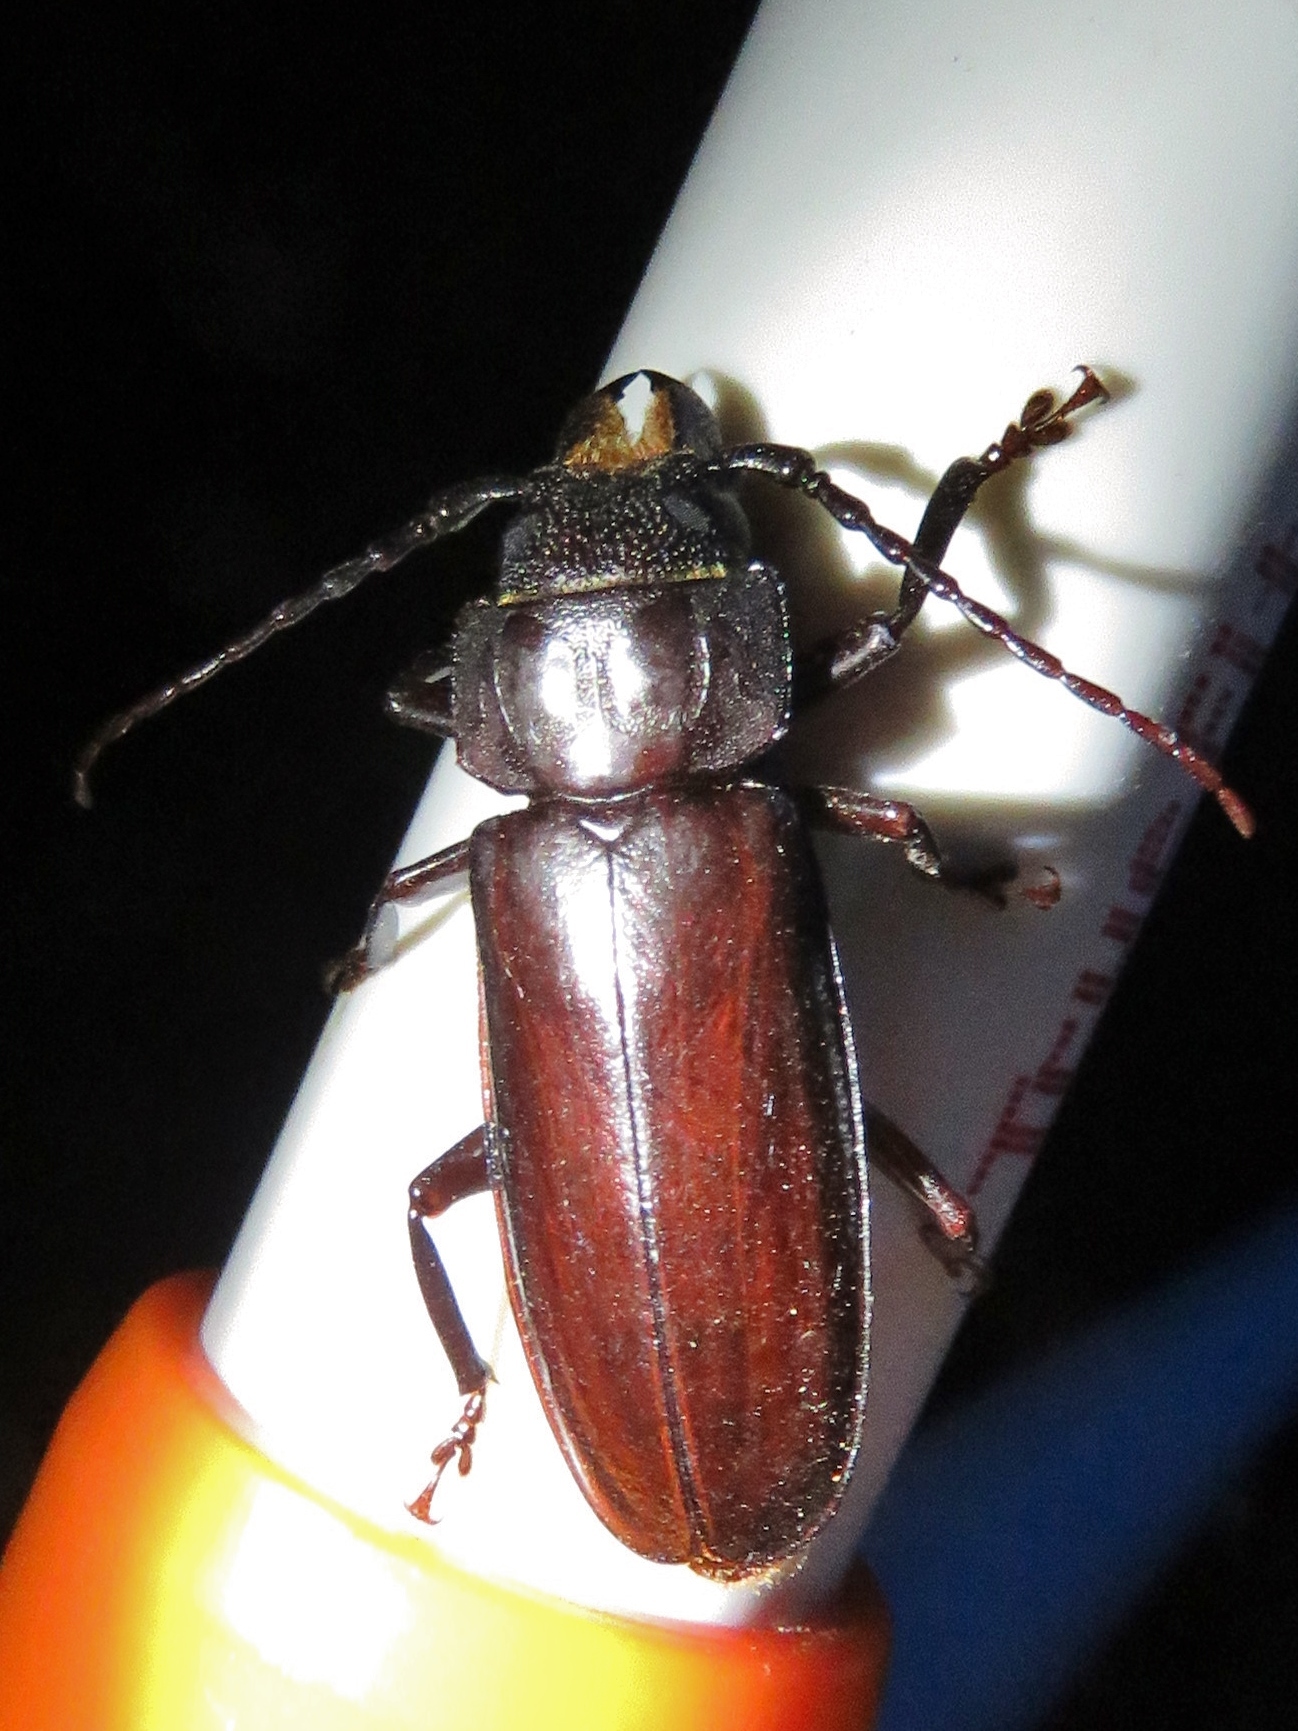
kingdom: Animalia
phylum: Arthropoda
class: Insecta
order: Coleoptera
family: Cerambycidae
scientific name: Cerambycidae
